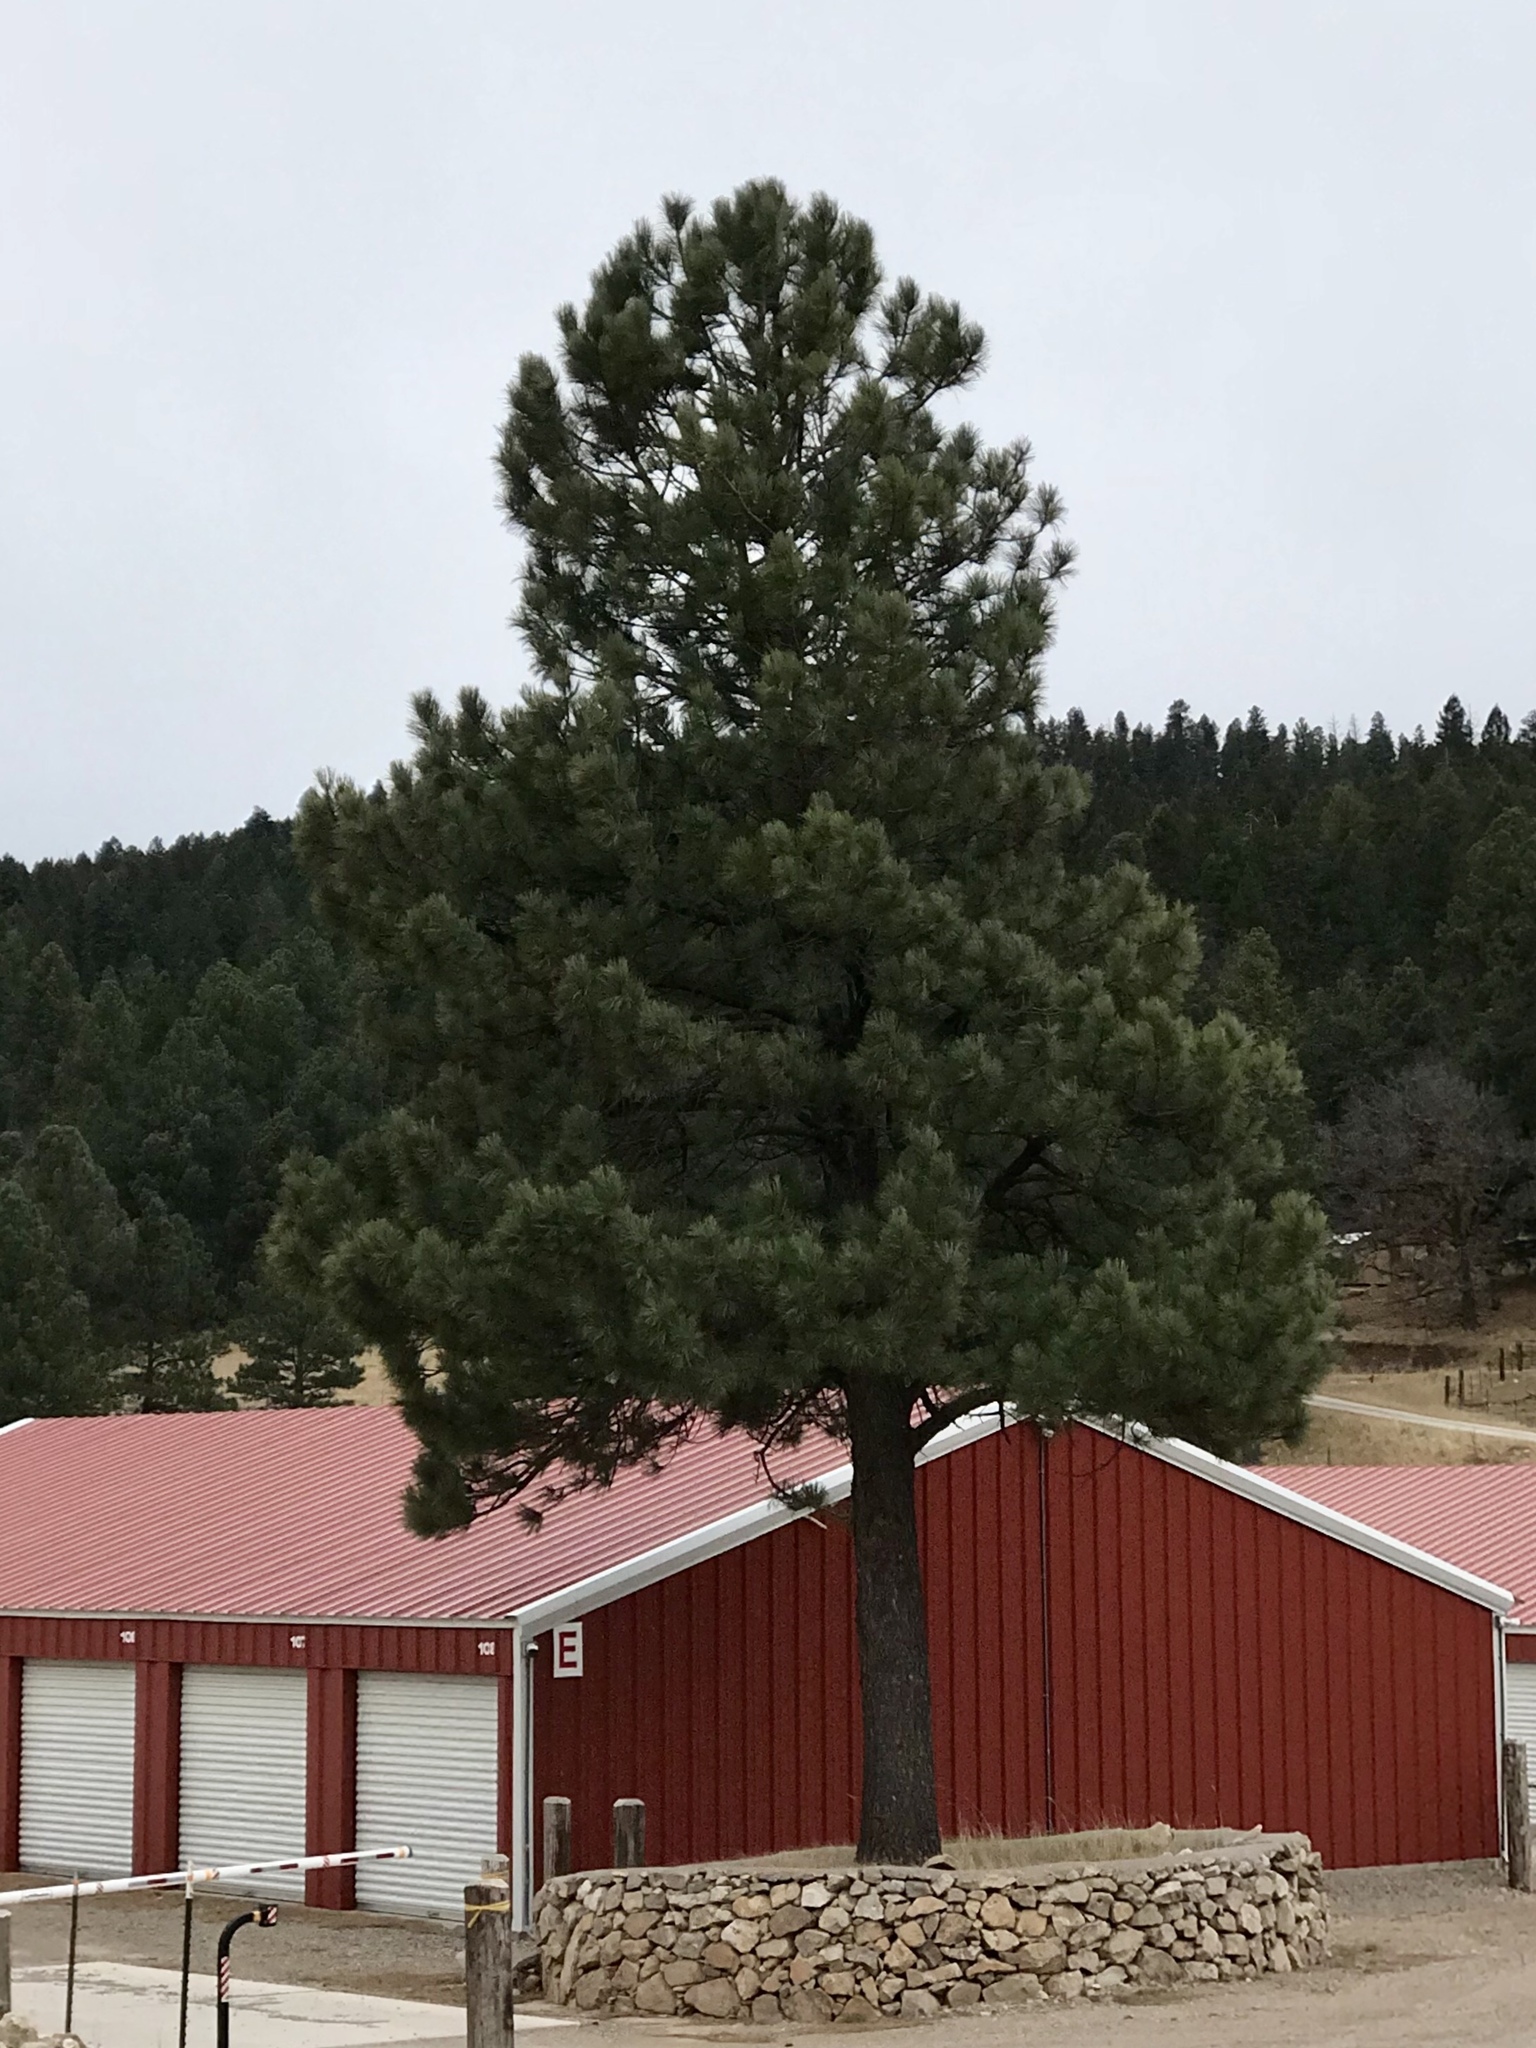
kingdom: Plantae
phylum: Tracheophyta
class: Pinopsida
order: Pinales
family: Pinaceae
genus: Pinus
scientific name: Pinus ponderosa
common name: Western yellow-pine
